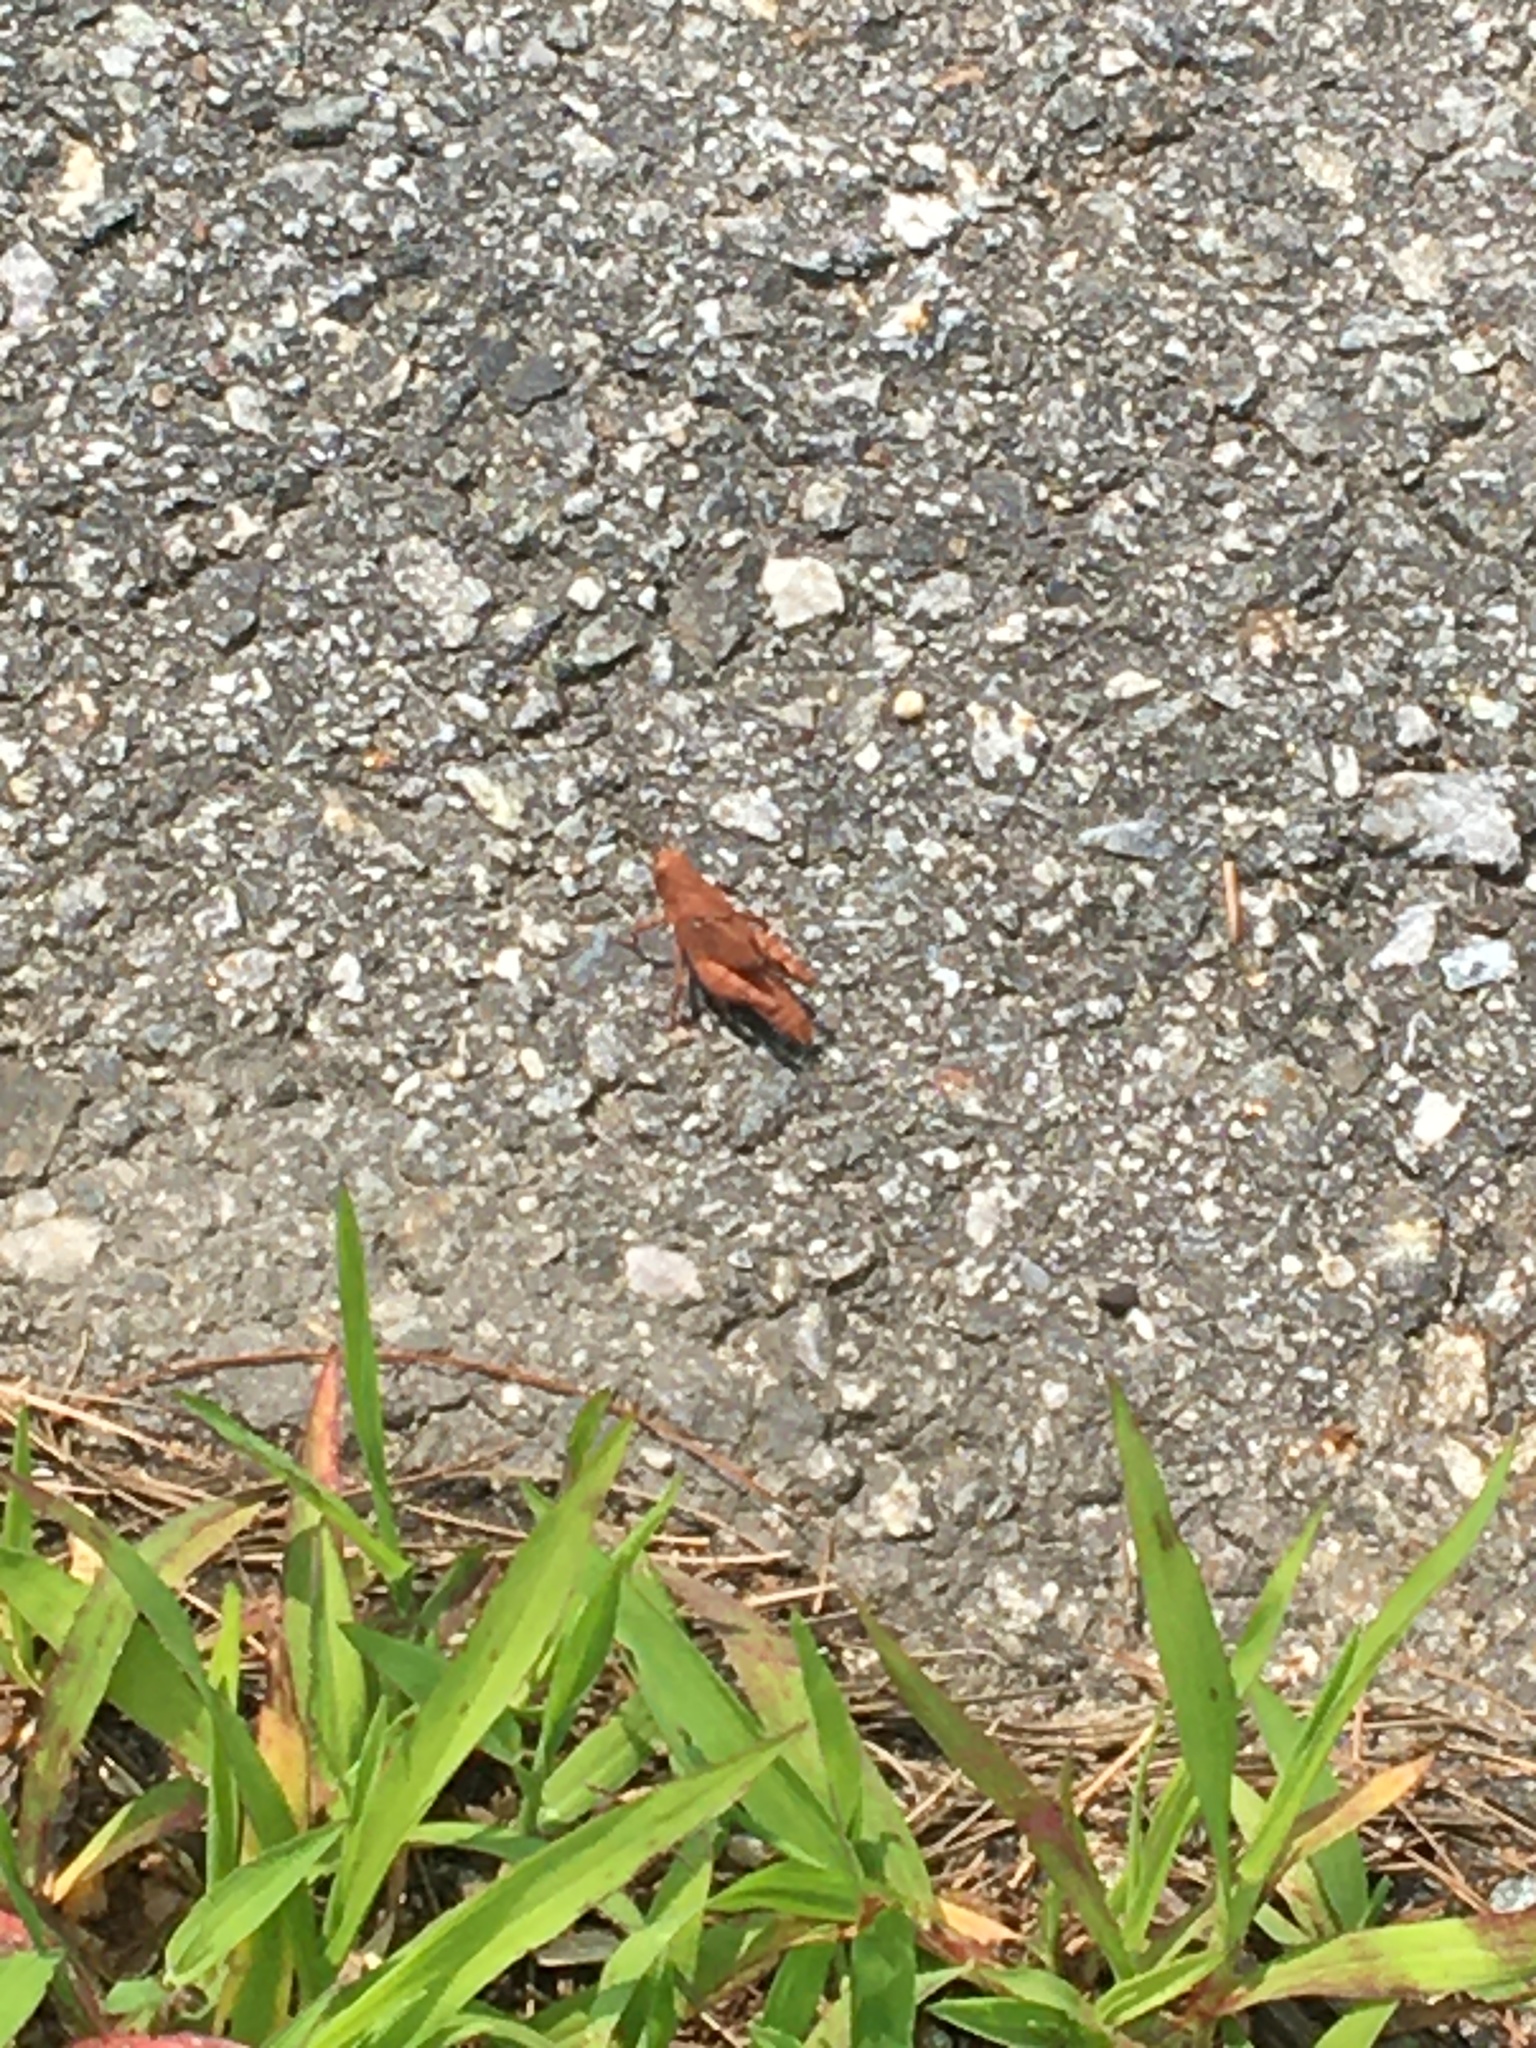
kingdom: Animalia
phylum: Arthropoda
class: Insecta
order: Orthoptera
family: Acrididae
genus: Dissosteira
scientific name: Dissosteira carolina
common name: Carolina grasshopper
